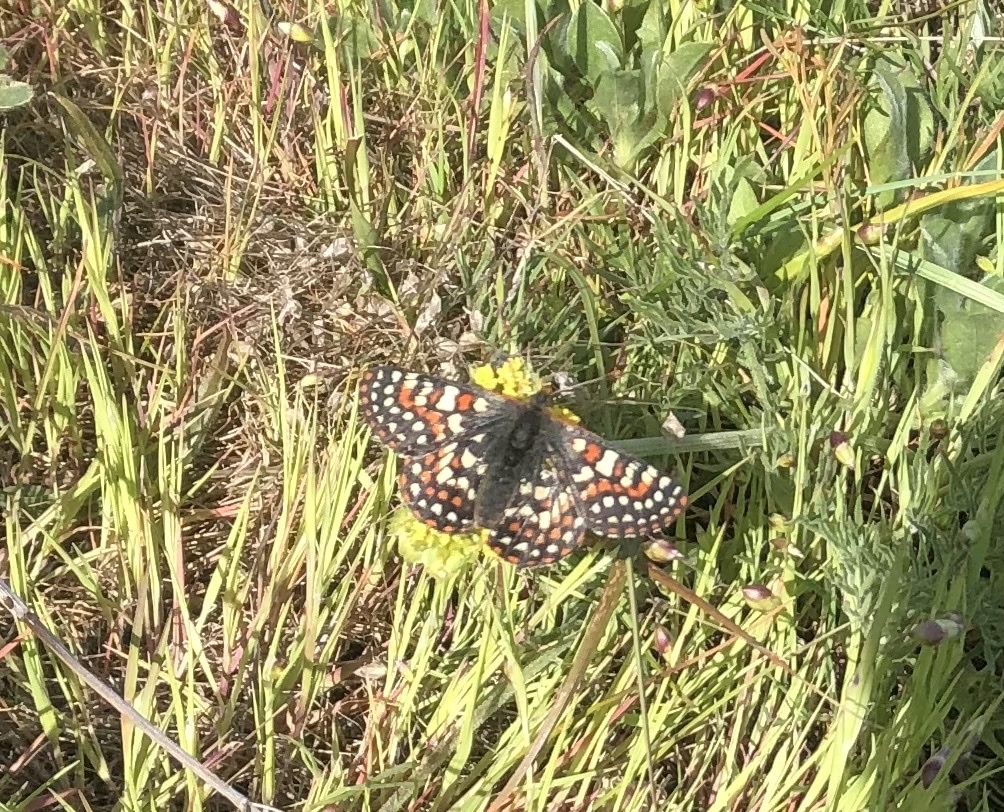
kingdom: Animalia
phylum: Arthropoda
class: Insecta
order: Lepidoptera
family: Nymphalidae
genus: Occidryas
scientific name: Occidryas editha
